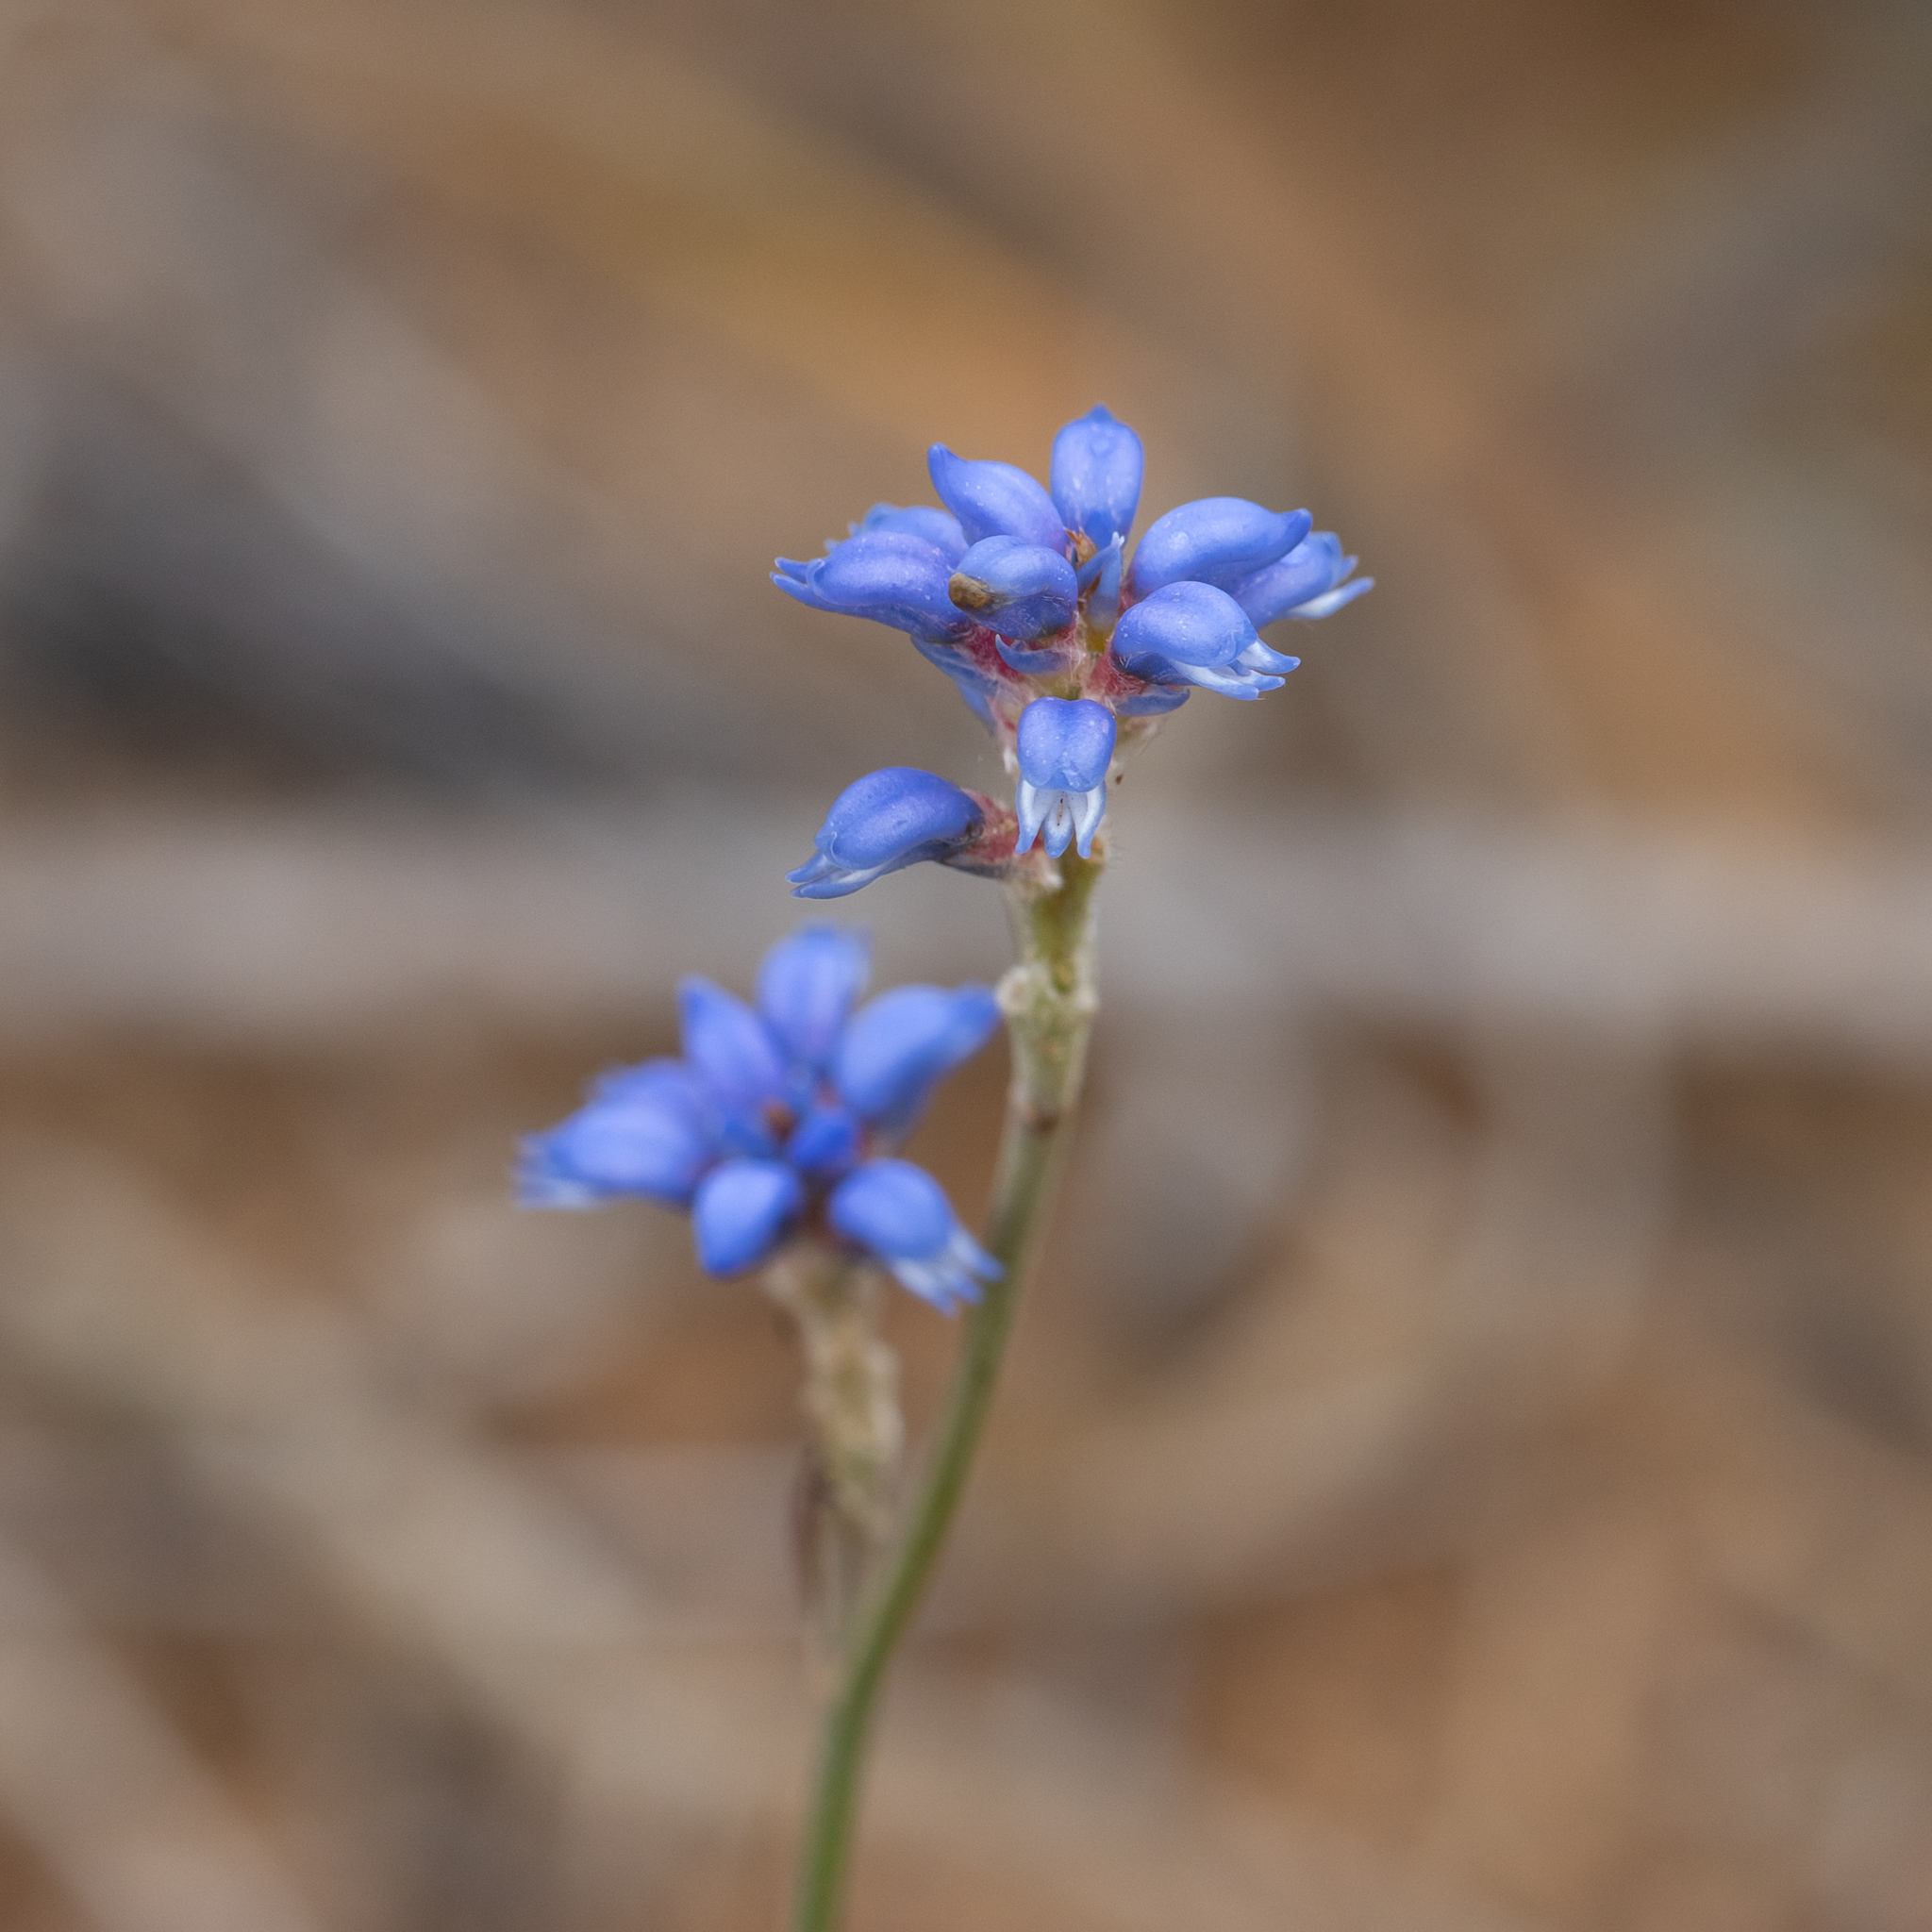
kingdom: Plantae
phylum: Tracheophyta
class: Magnoliopsida
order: Proteales
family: Proteaceae
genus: Conospermum
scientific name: Conospermum caeruleum
